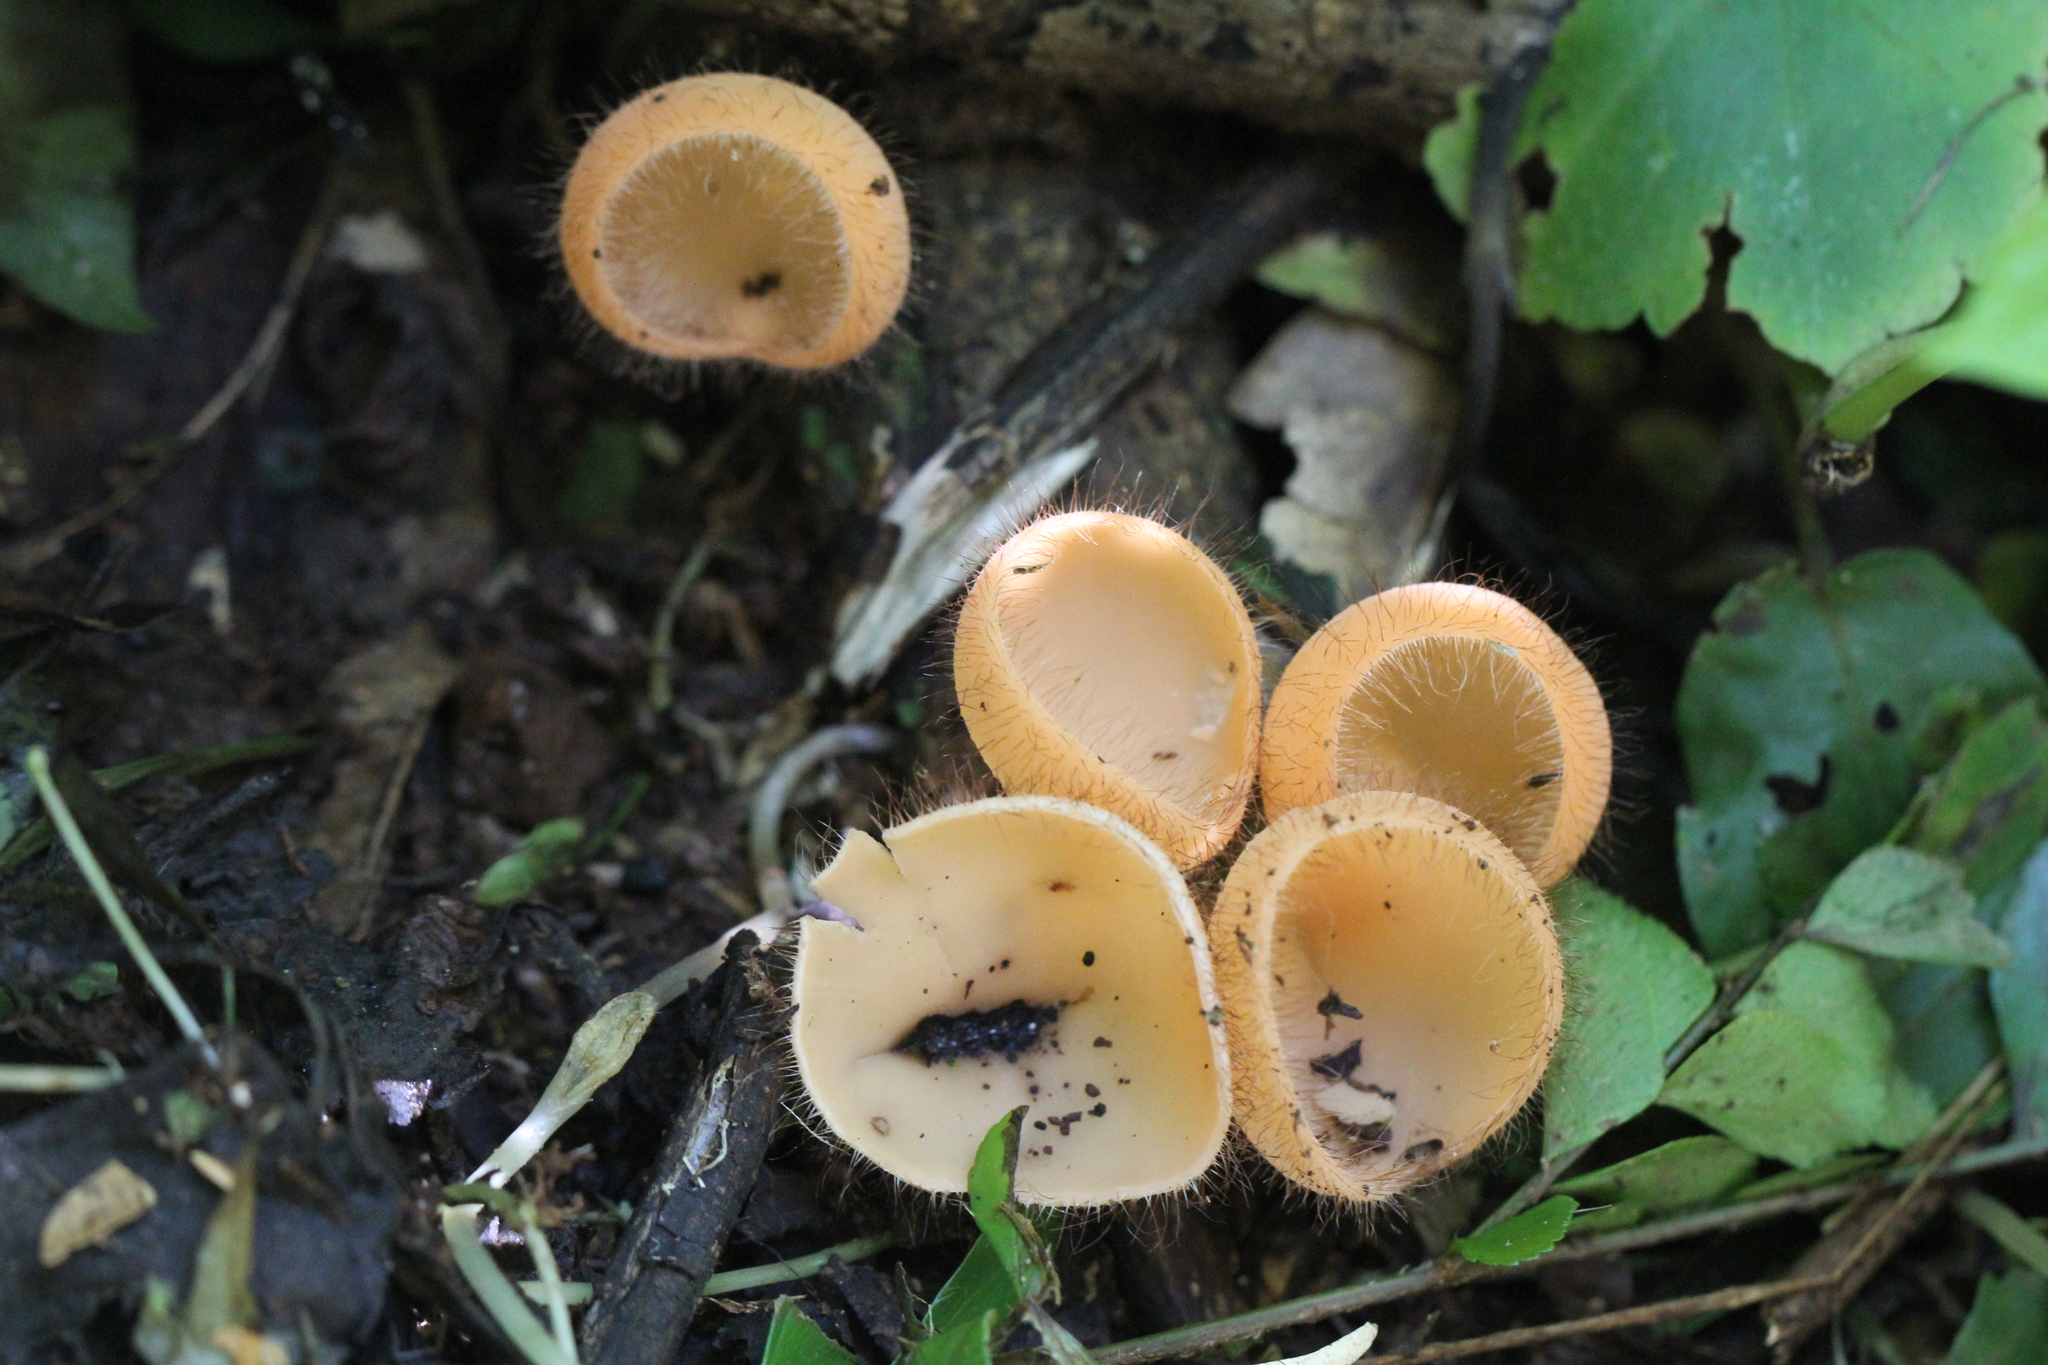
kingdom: Fungi
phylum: Ascomycota
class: Pezizomycetes
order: Pezizales
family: Sarcoscyphaceae
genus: Cookeina
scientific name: Cookeina tricholoma
